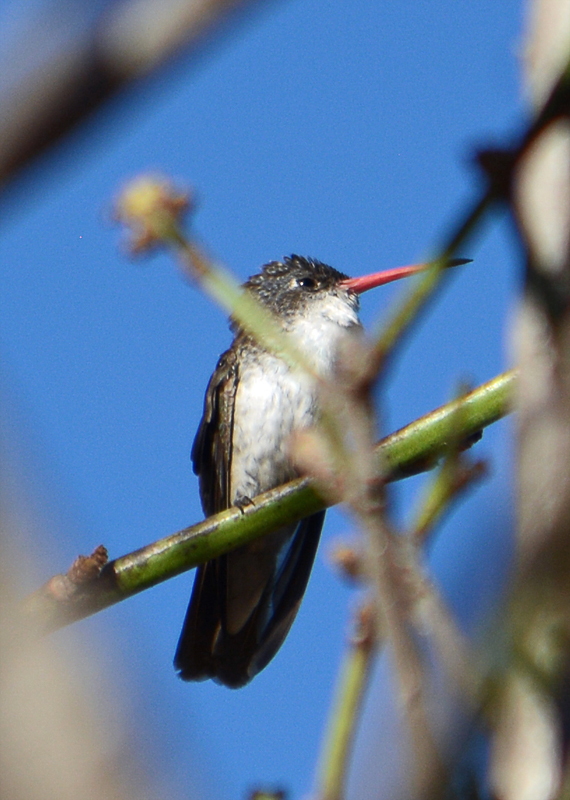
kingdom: Animalia
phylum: Chordata
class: Aves
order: Apodiformes
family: Trochilidae
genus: Leucolia
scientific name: Leucolia violiceps
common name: Violet-crowned hummingbird
